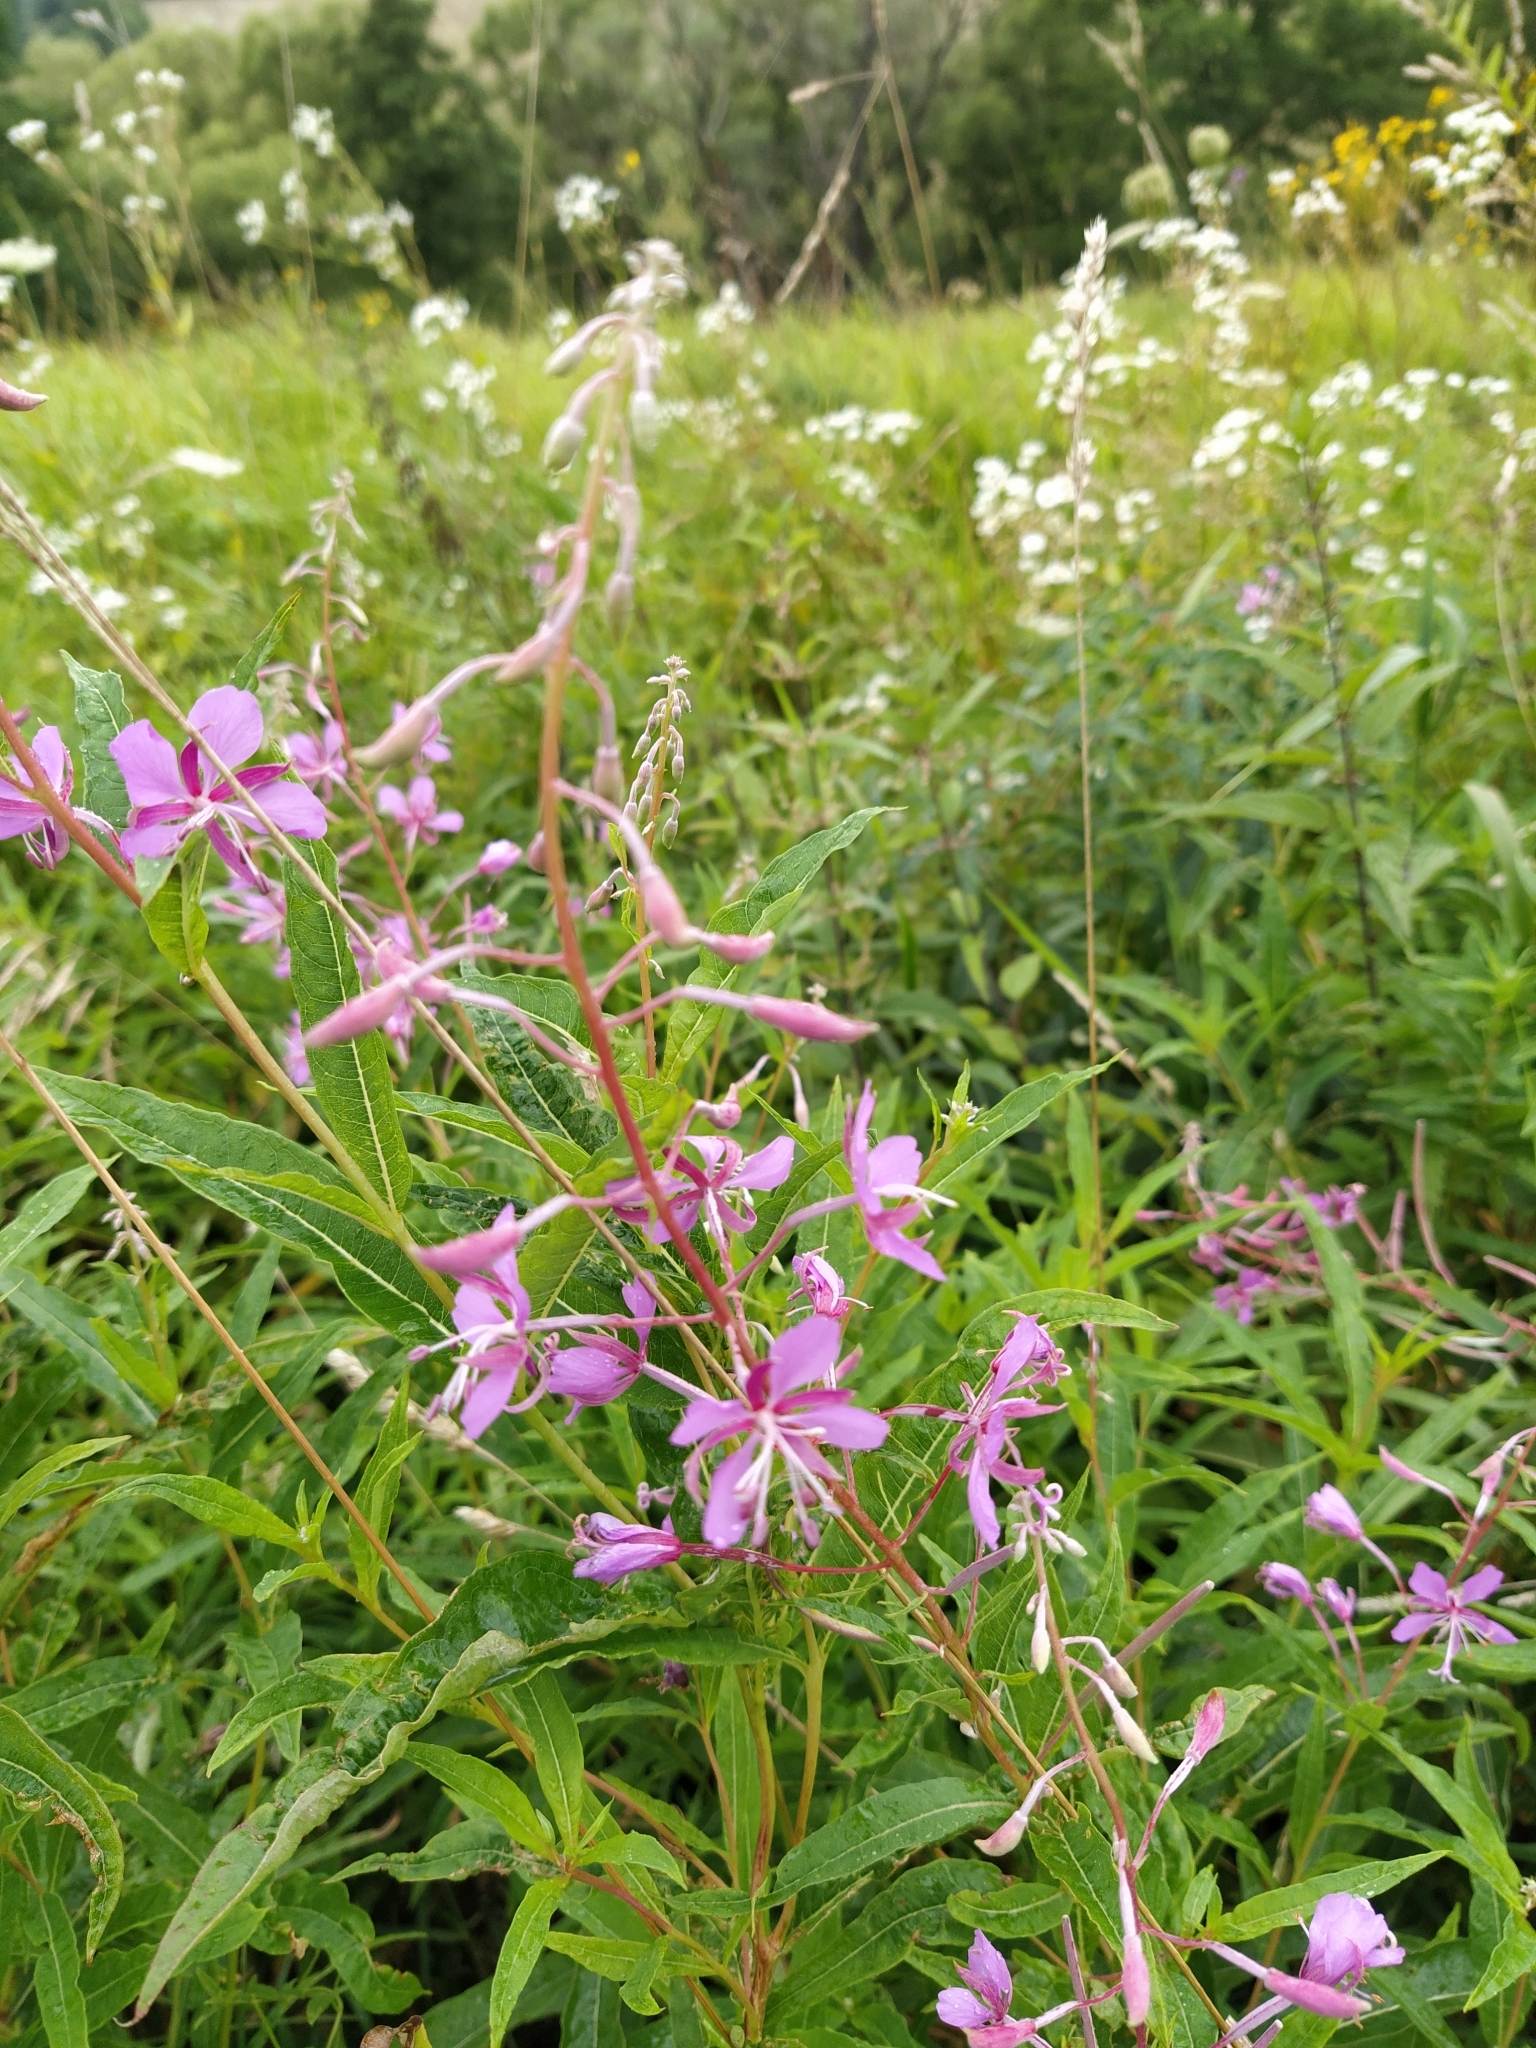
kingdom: Plantae
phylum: Tracheophyta
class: Magnoliopsida
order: Myrtales
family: Onagraceae
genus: Chamaenerion
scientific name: Chamaenerion angustifolium
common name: Fireweed
